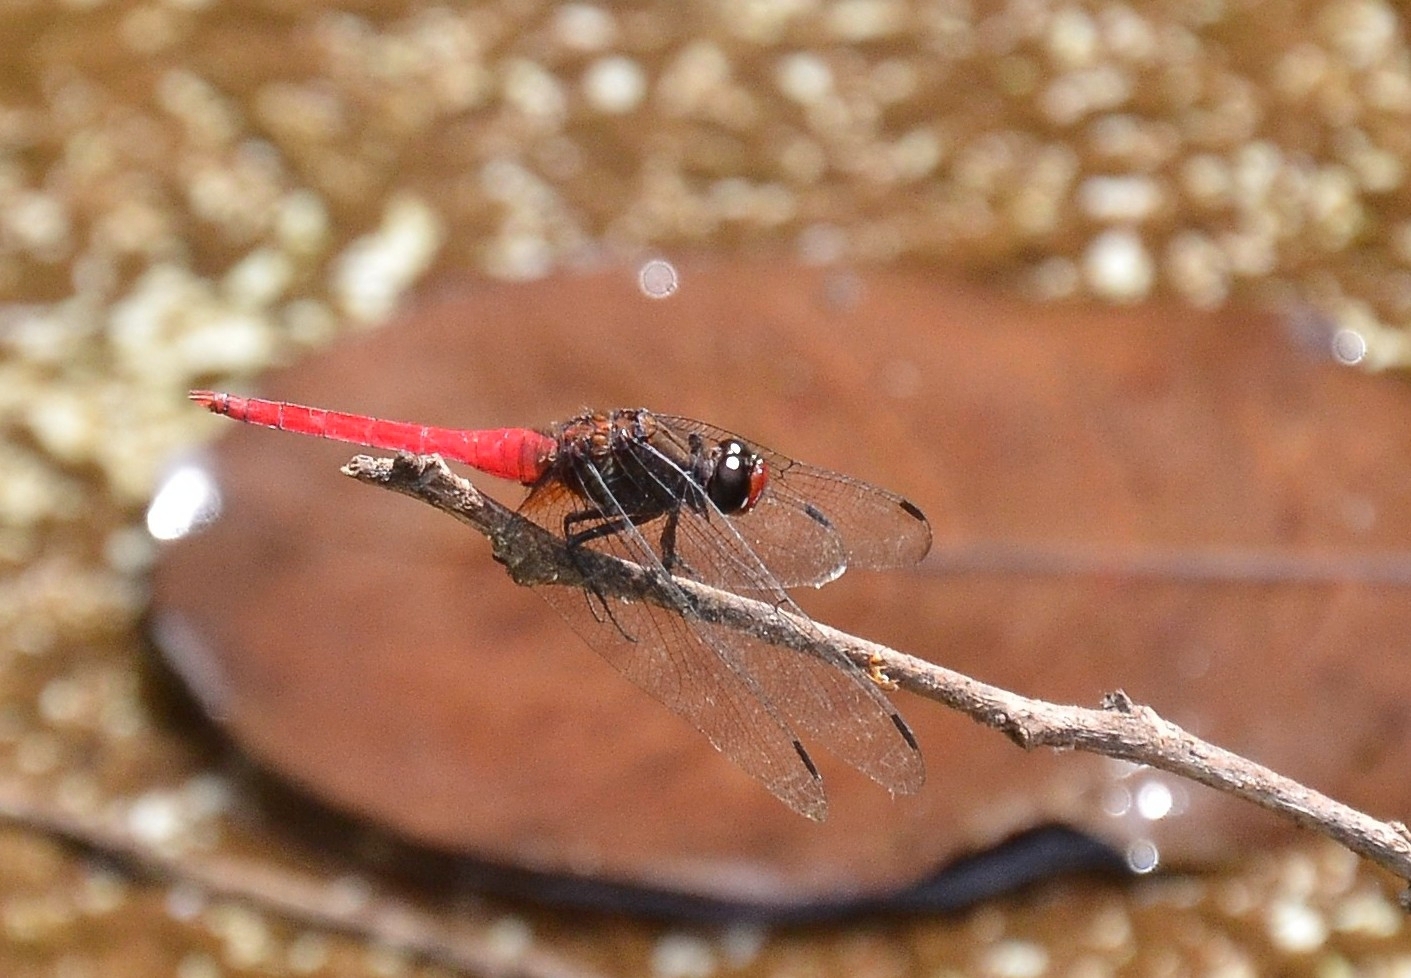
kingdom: Animalia
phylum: Arthropoda
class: Insecta
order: Odonata
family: Libellulidae
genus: Orthetrum
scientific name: Orthetrum chrysis
